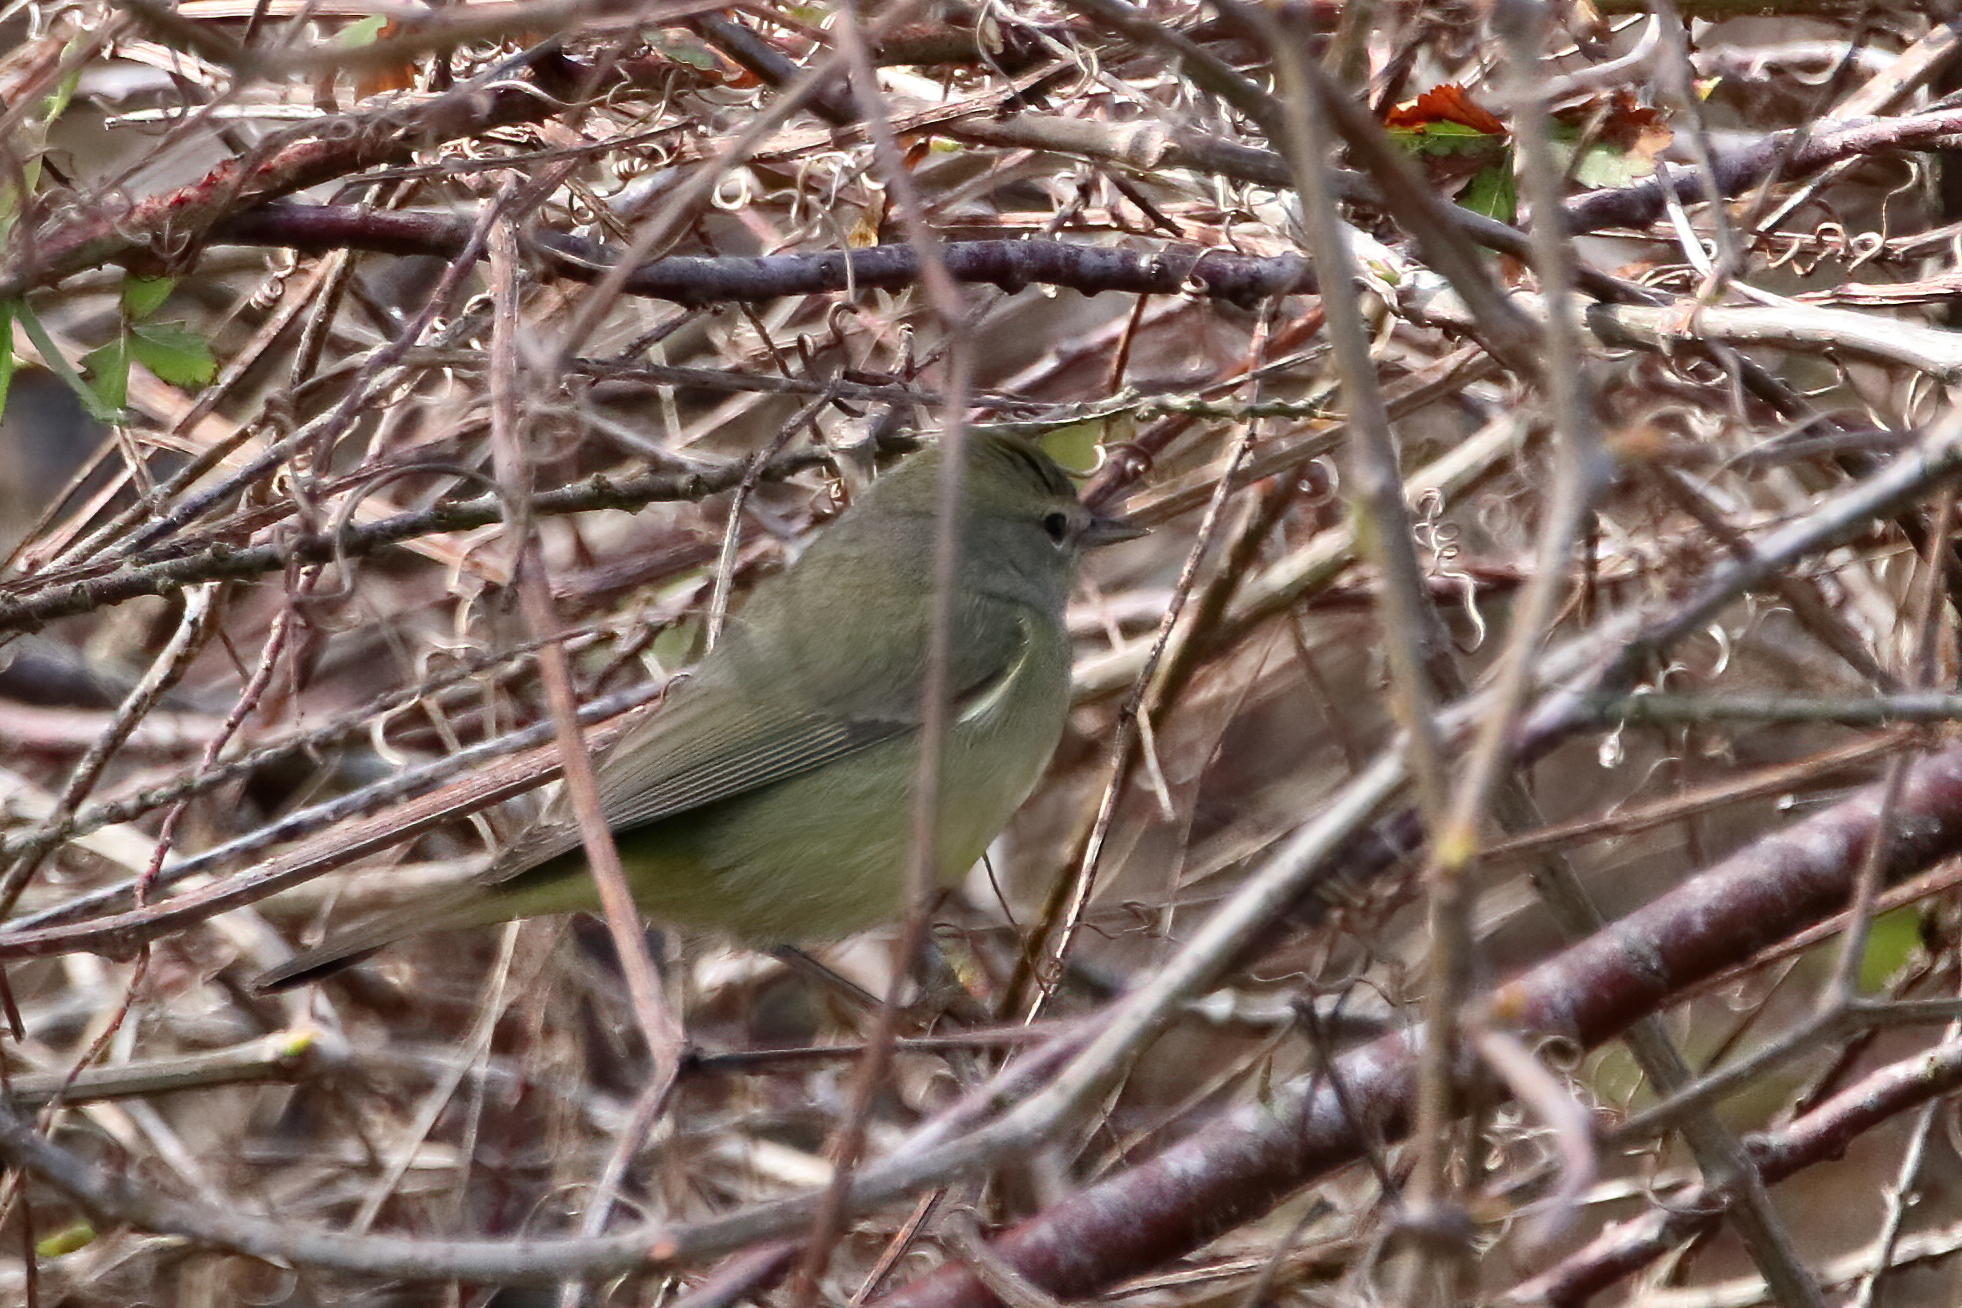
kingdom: Animalia
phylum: Chordata
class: Aves
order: Passeriformes
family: Parulidae
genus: Leiothlypis
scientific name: Leiothlypis celata
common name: Orange-crowned warbler
